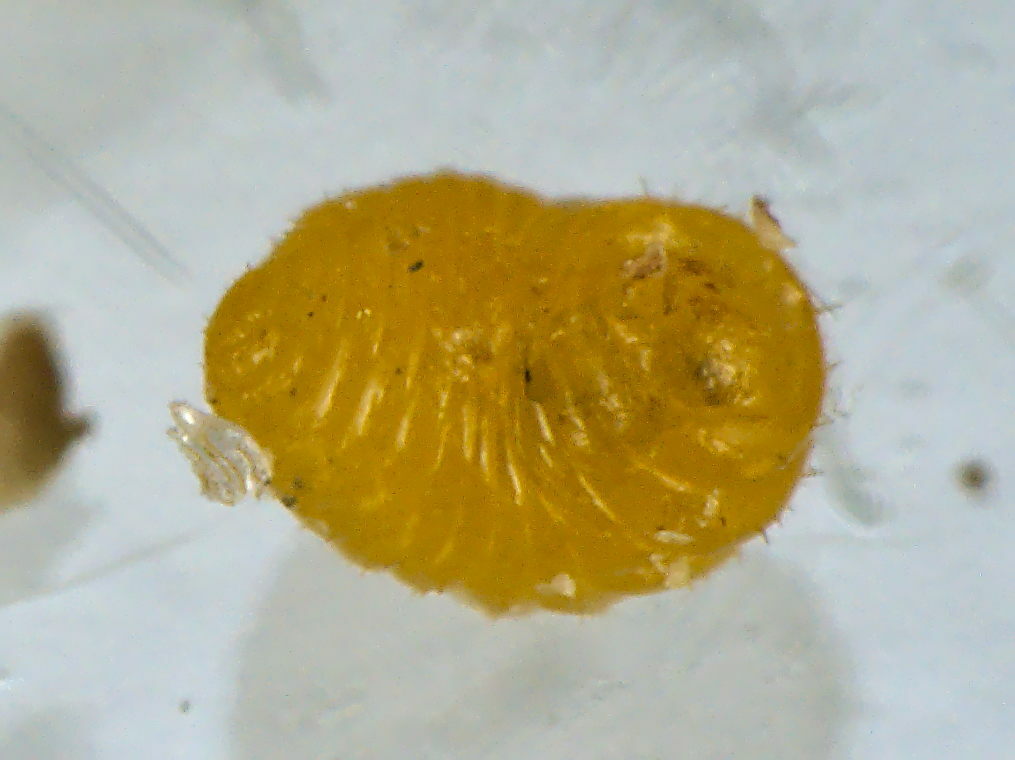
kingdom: Animalia
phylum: Arthropoda
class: Insecta
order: Diptera
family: Cecidomyiidae
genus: Semudobia
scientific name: Semudobia betulae
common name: Gall midge
